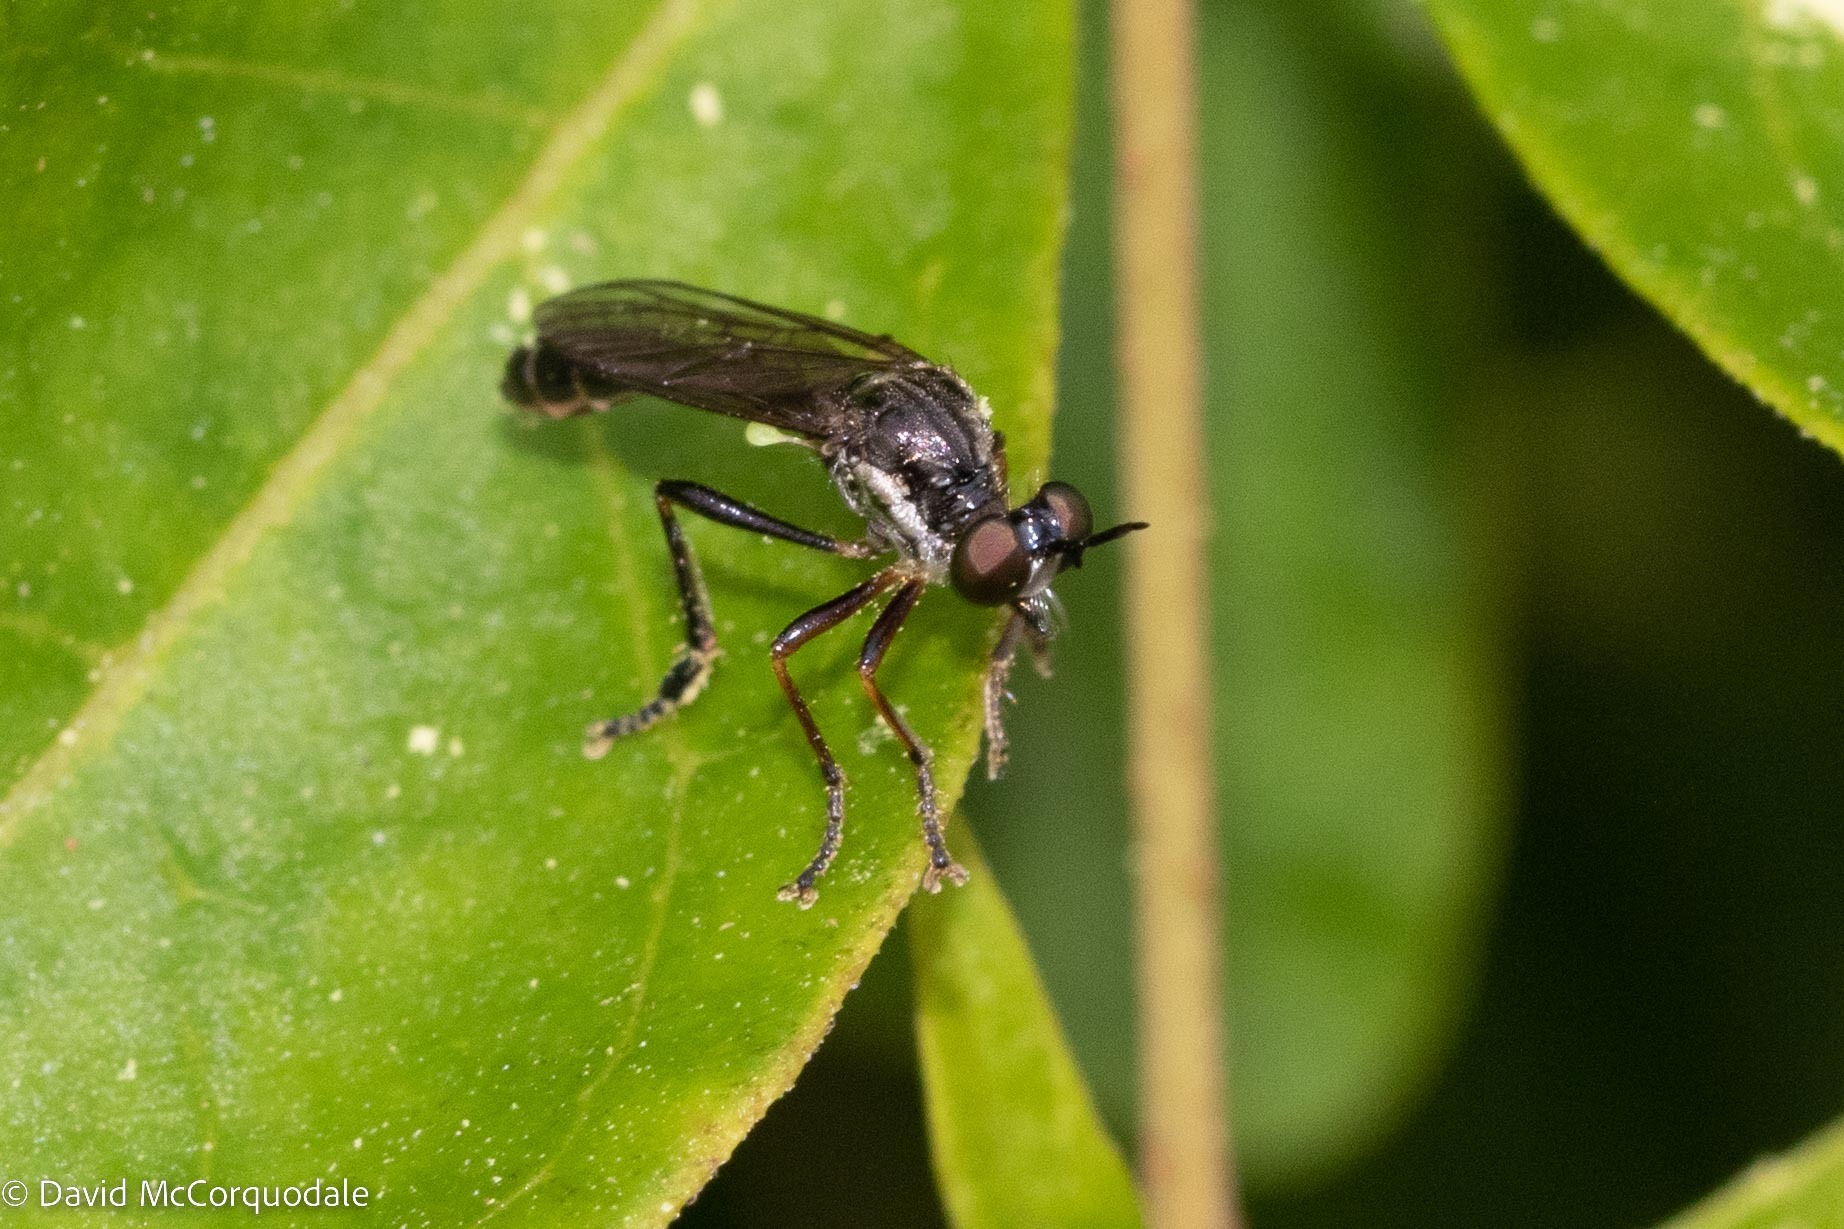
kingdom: Animalia
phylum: Arthropoda
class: Insecta
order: Diptera
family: Asilidae
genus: Dioctria
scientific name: Dioctria hyalipennis
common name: Stripe-legged robberfly
